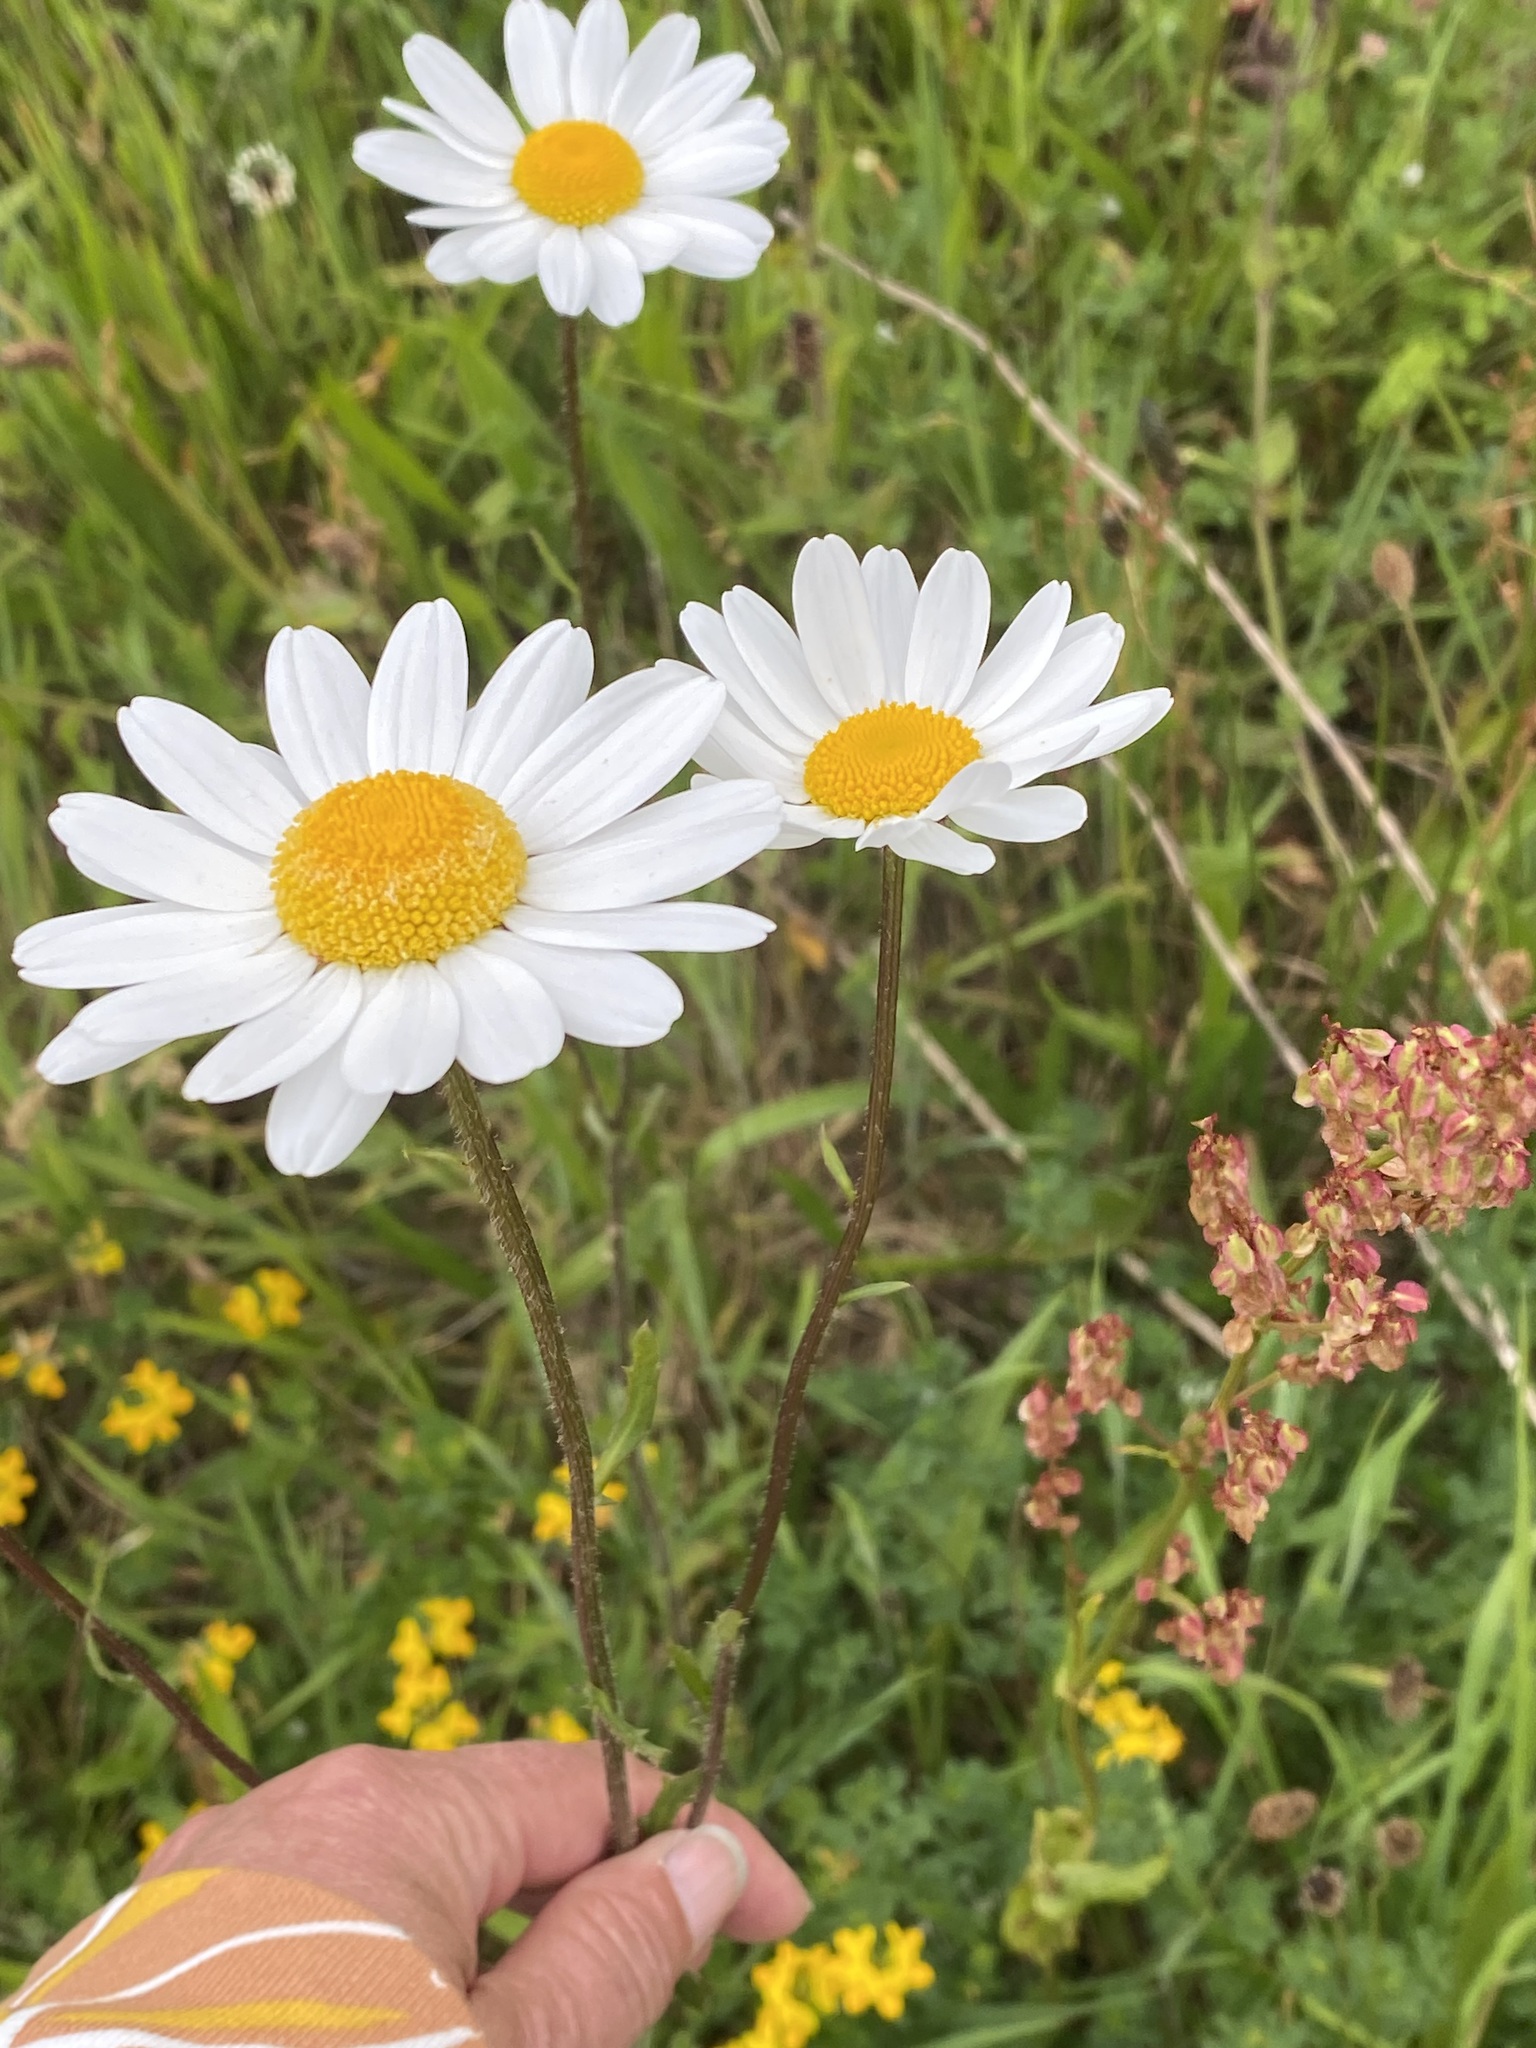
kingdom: Plantae
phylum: Tracheophyta
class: Magnoliopsida
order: Asterales
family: Asteraceae
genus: Leucanthemum
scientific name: Leucanthemum vulgare
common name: Oxeye daisy
